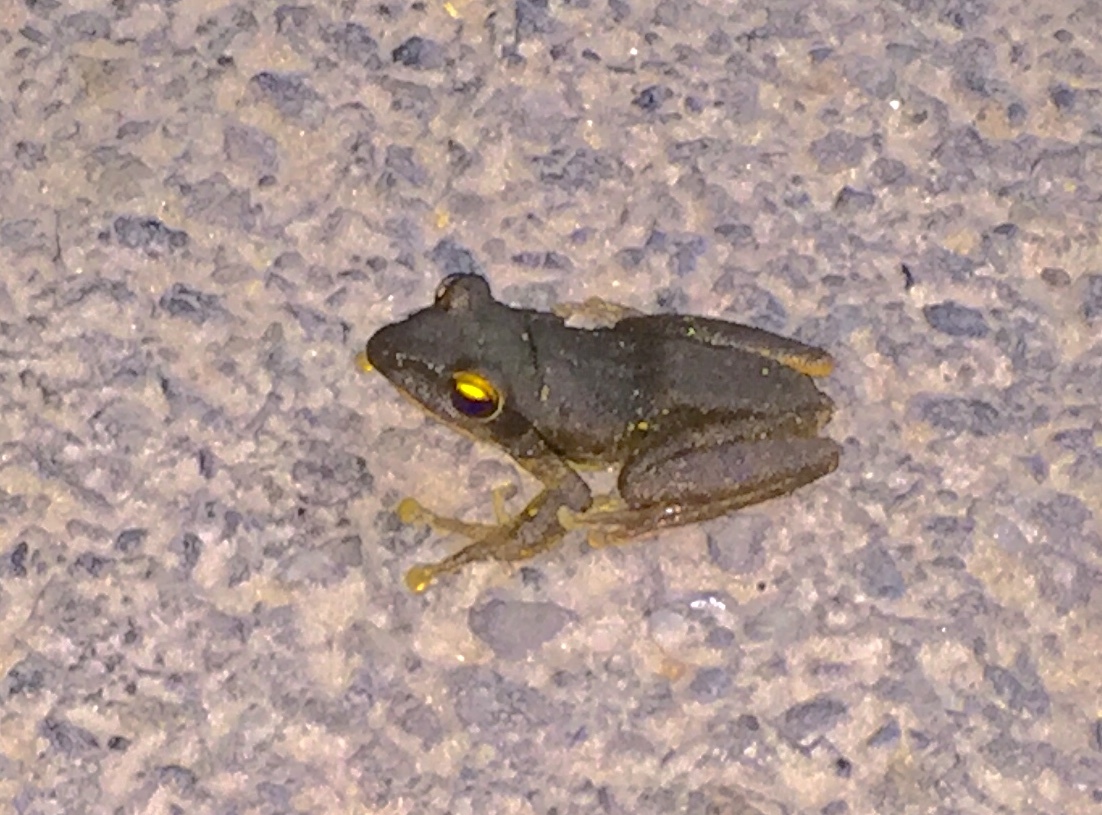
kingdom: Animalia
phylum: Chordata
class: Amphibia
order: Anura
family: Rhacophoridae
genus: Polypedates
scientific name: Polypedates megacephalus
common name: Hong kong whipping frog
